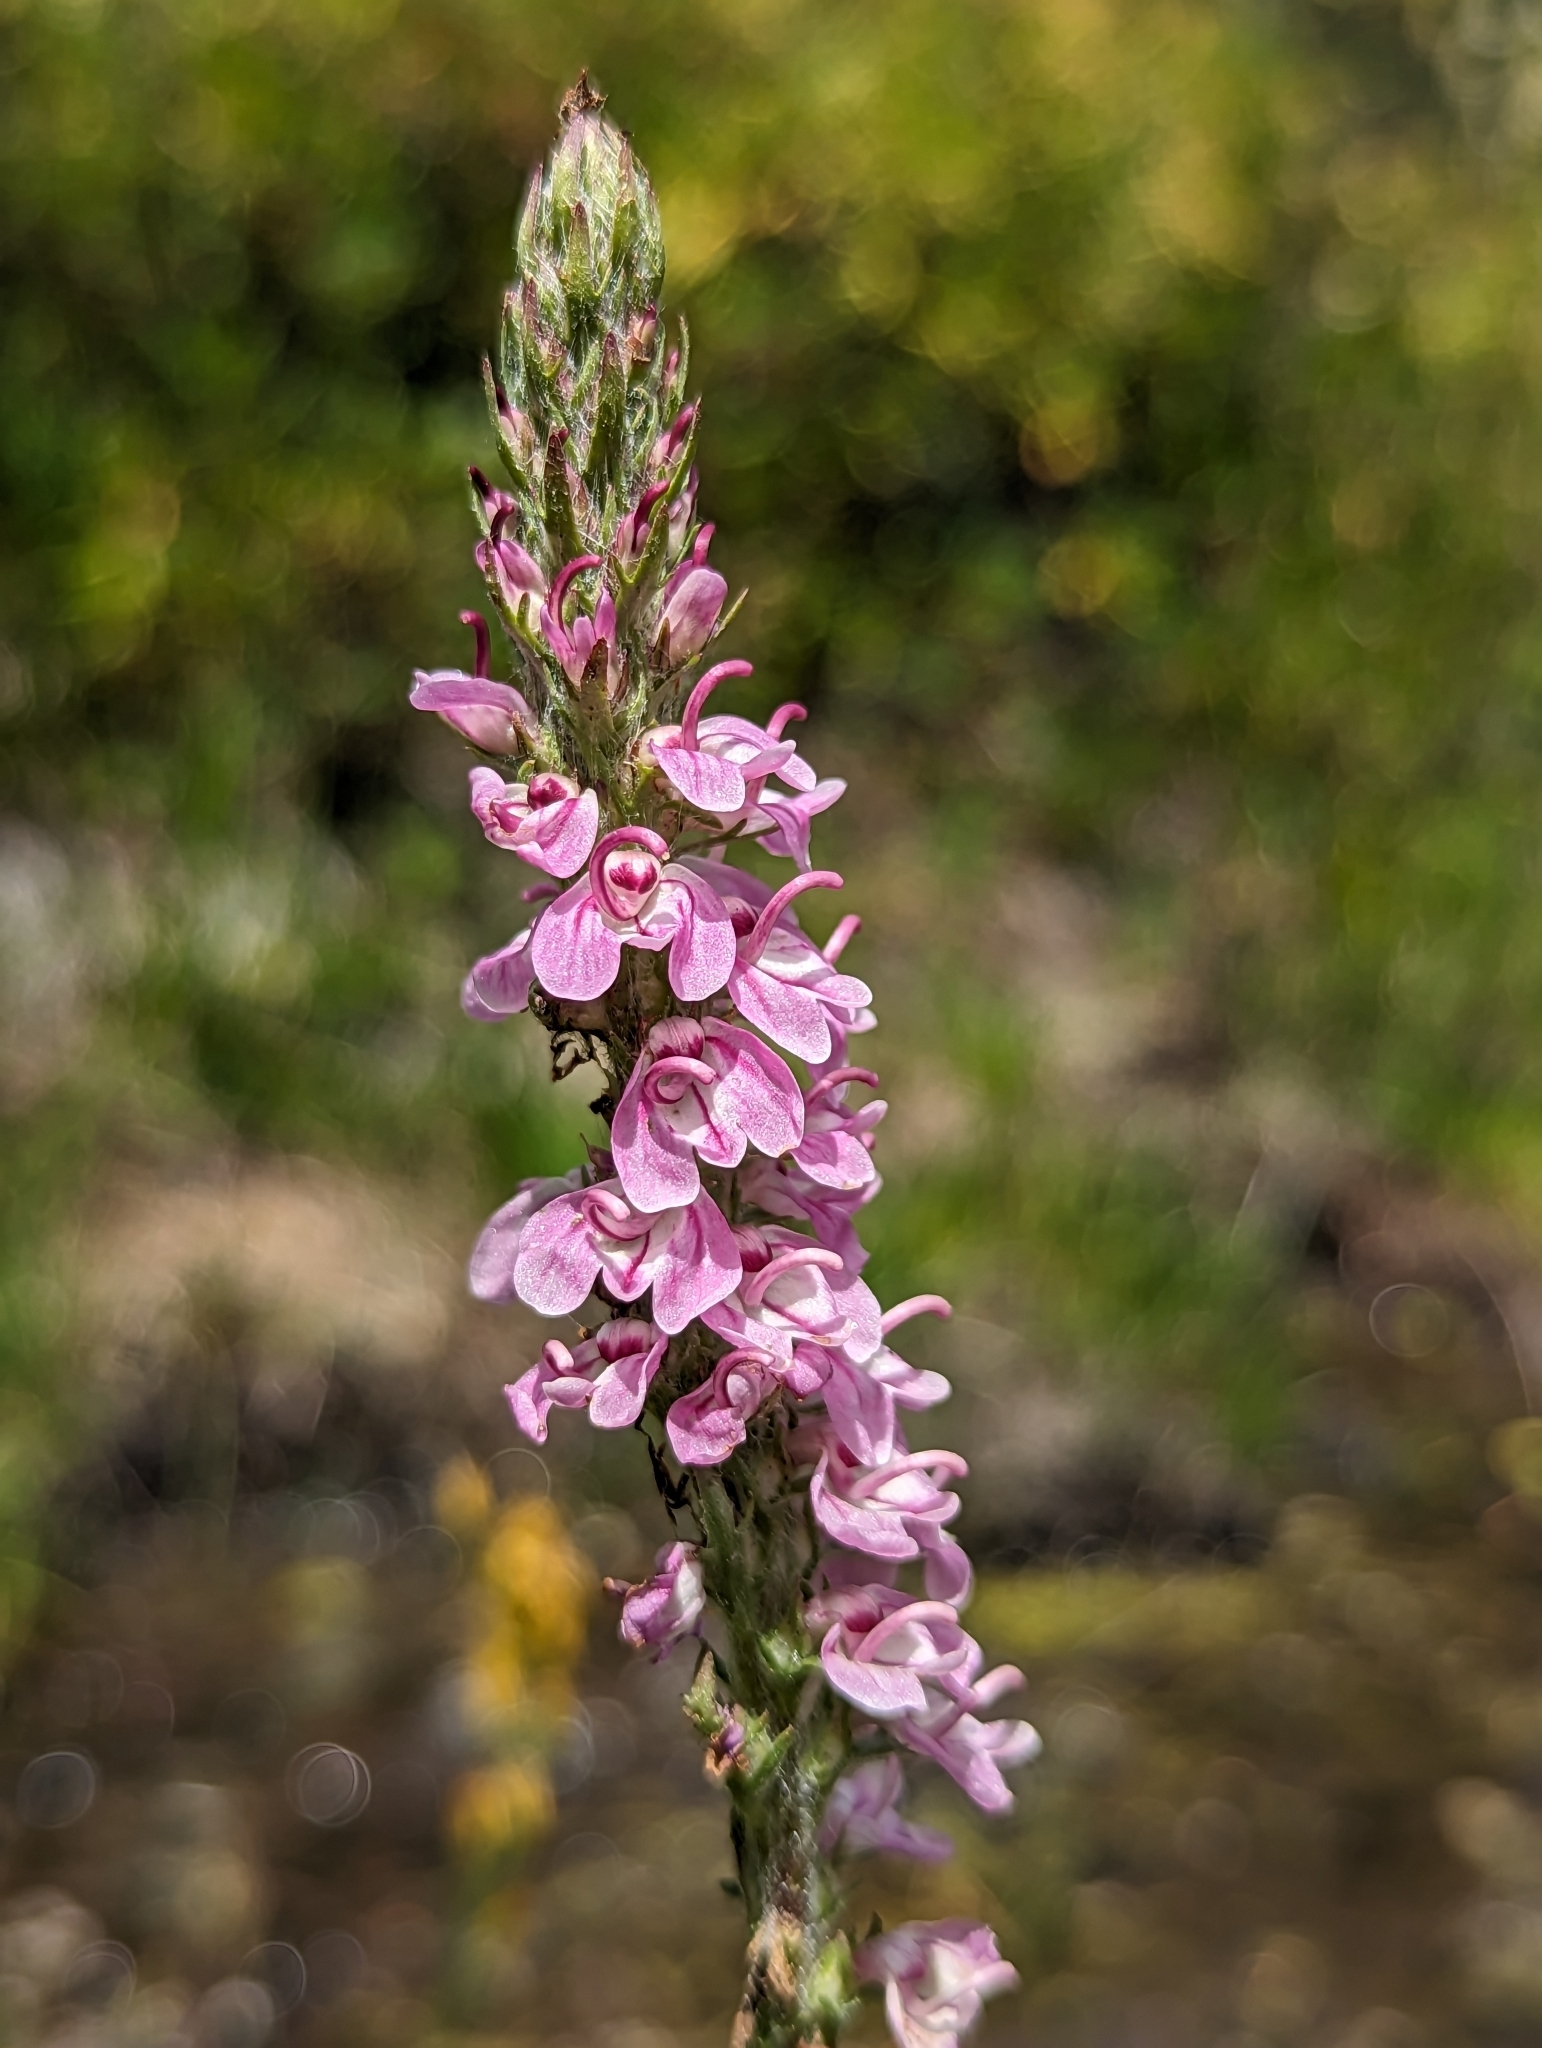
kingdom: Plantae
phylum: Tracheophyta
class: Magnoliopsida
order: Lamiales
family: Orobanchaceae
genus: Pedicularis
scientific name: Pedicularis attollens
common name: Slender pedicularis
